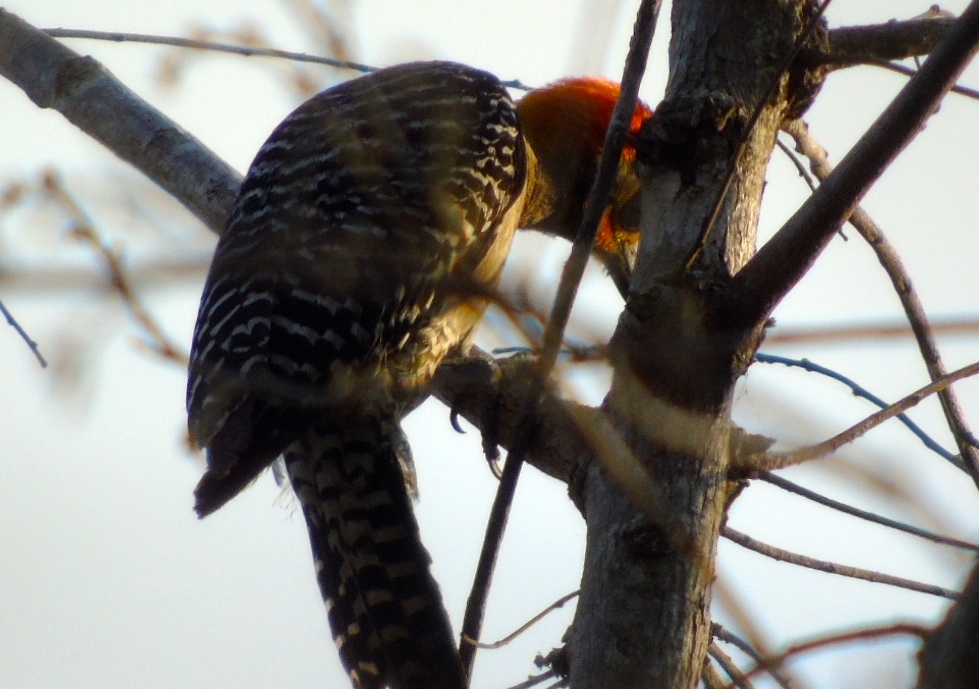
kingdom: Animalia
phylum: Chordata
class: Aves
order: Piciformes
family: Picidae
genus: Melanerpes
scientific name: Melanerpes chrysogenys
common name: Golden-cheeked woodpecker
